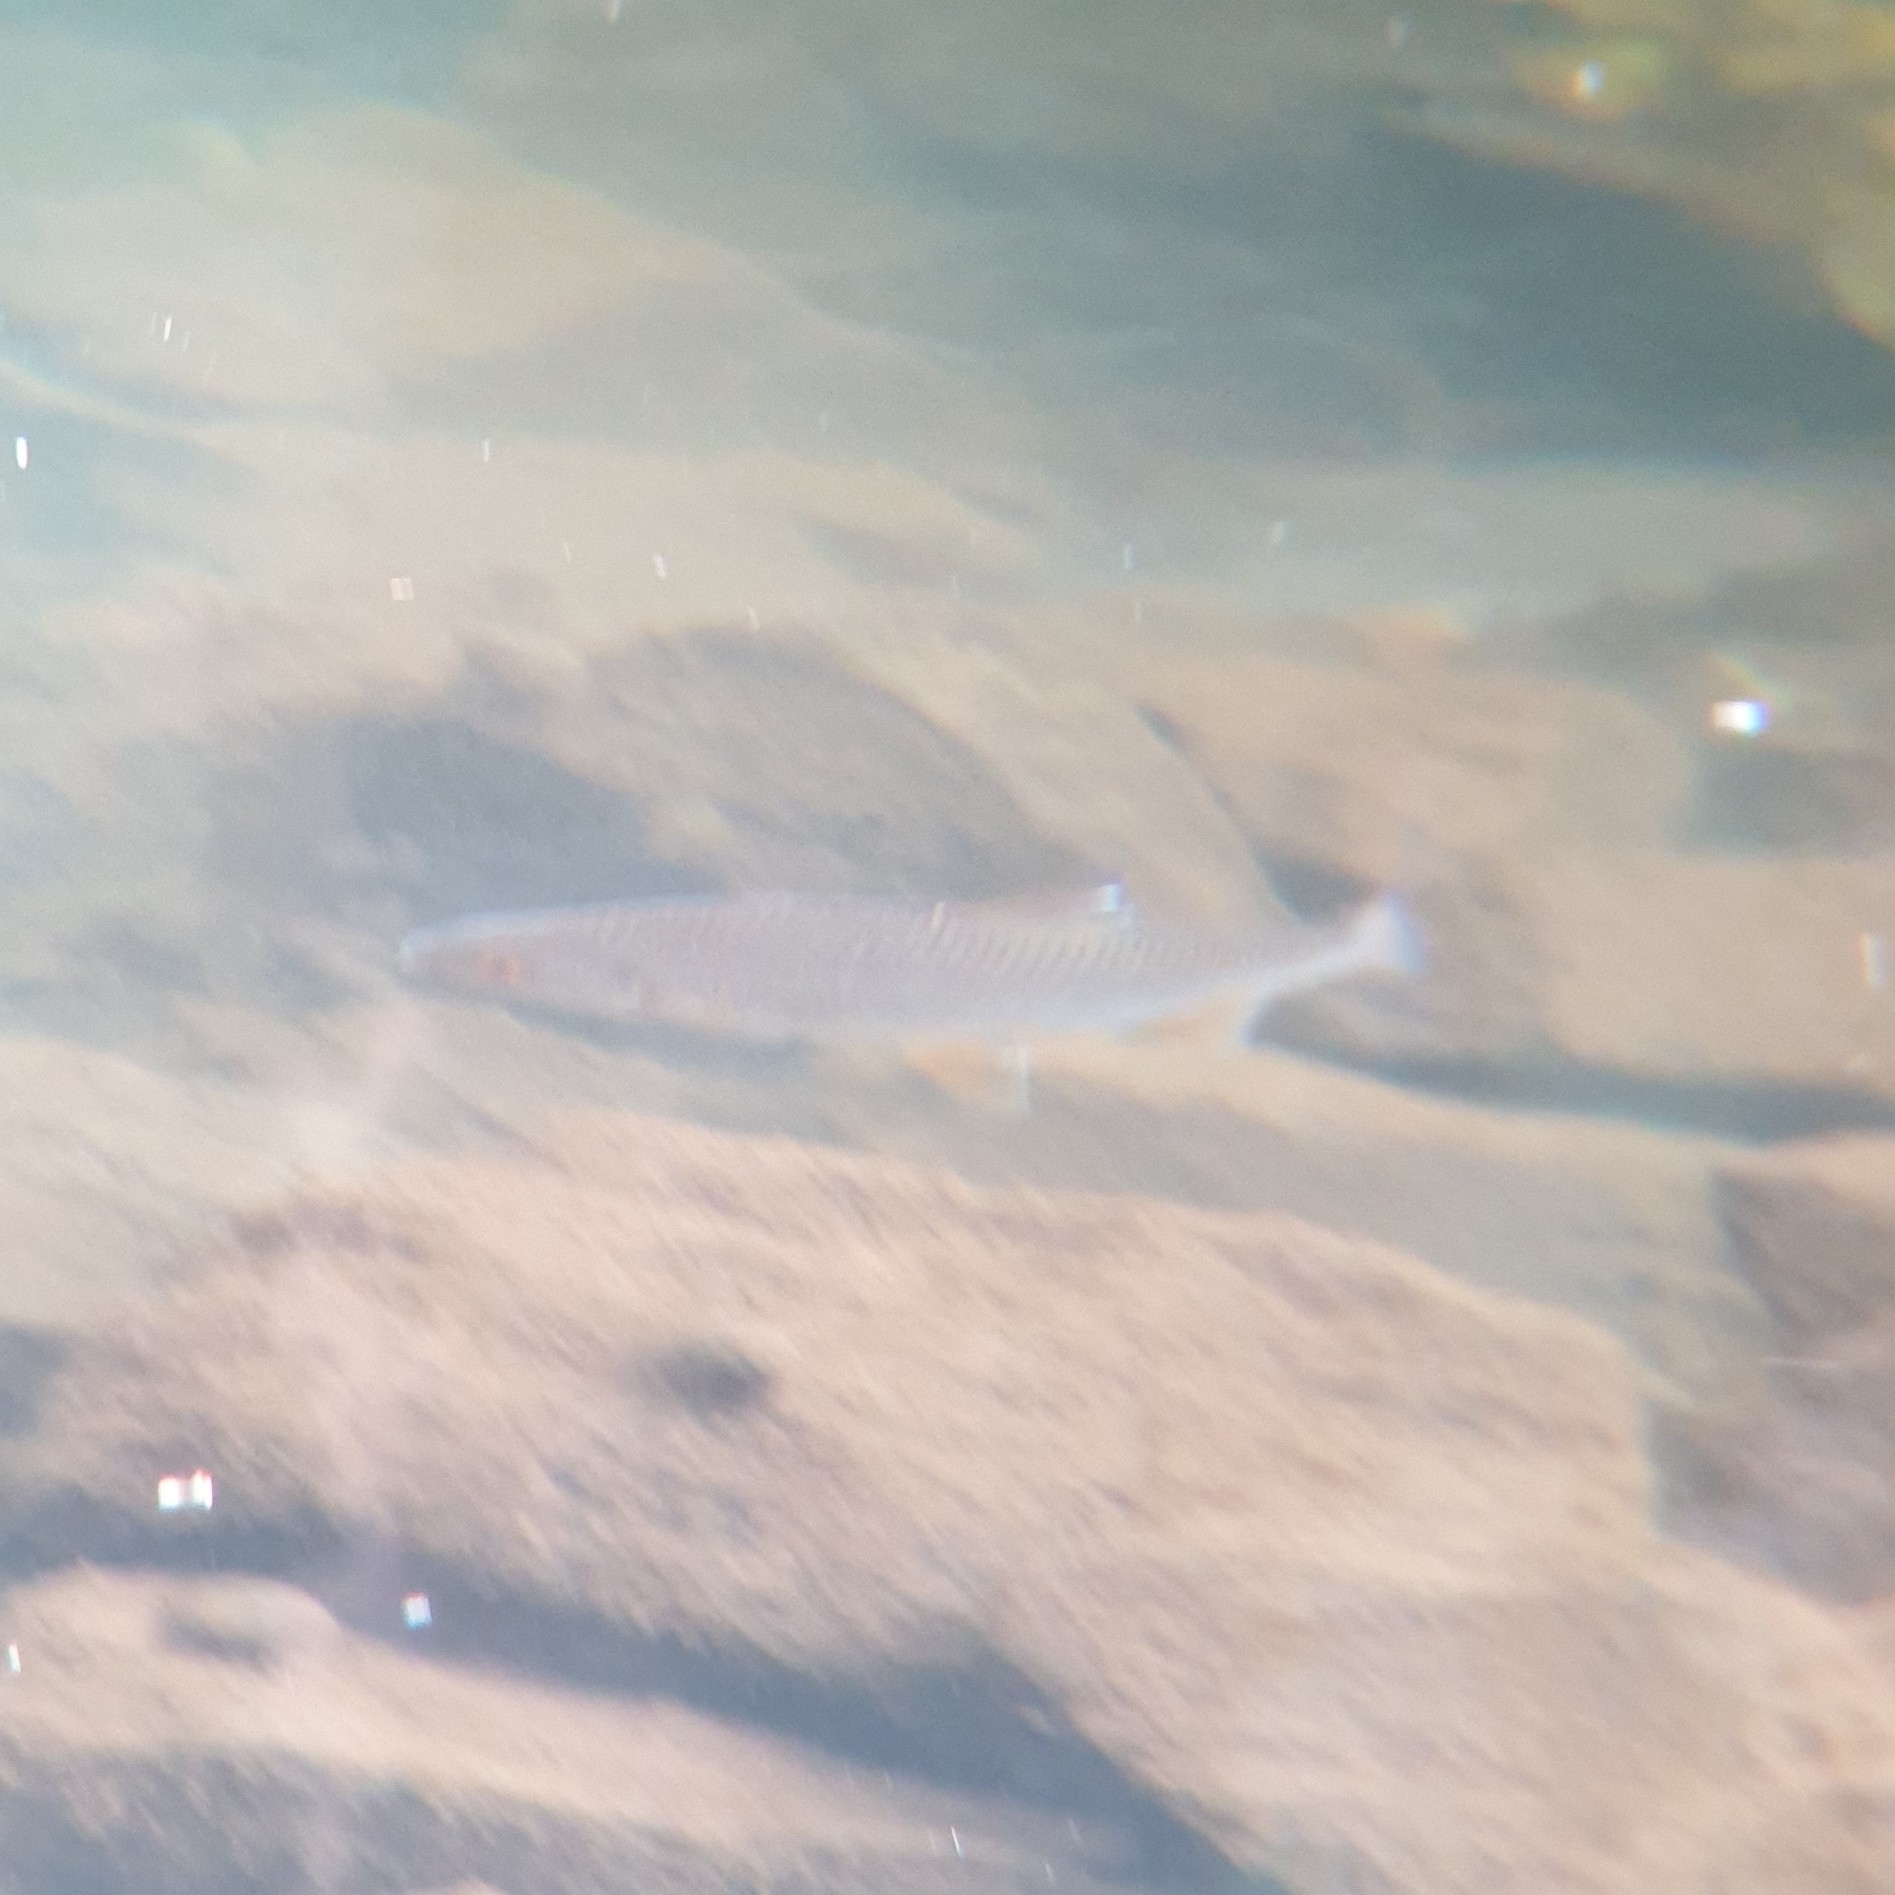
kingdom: Animalia
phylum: Chordata
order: Cypriniformes
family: Cyprinidae
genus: Rutilus
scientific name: Rutilus rutilus
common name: Roach
